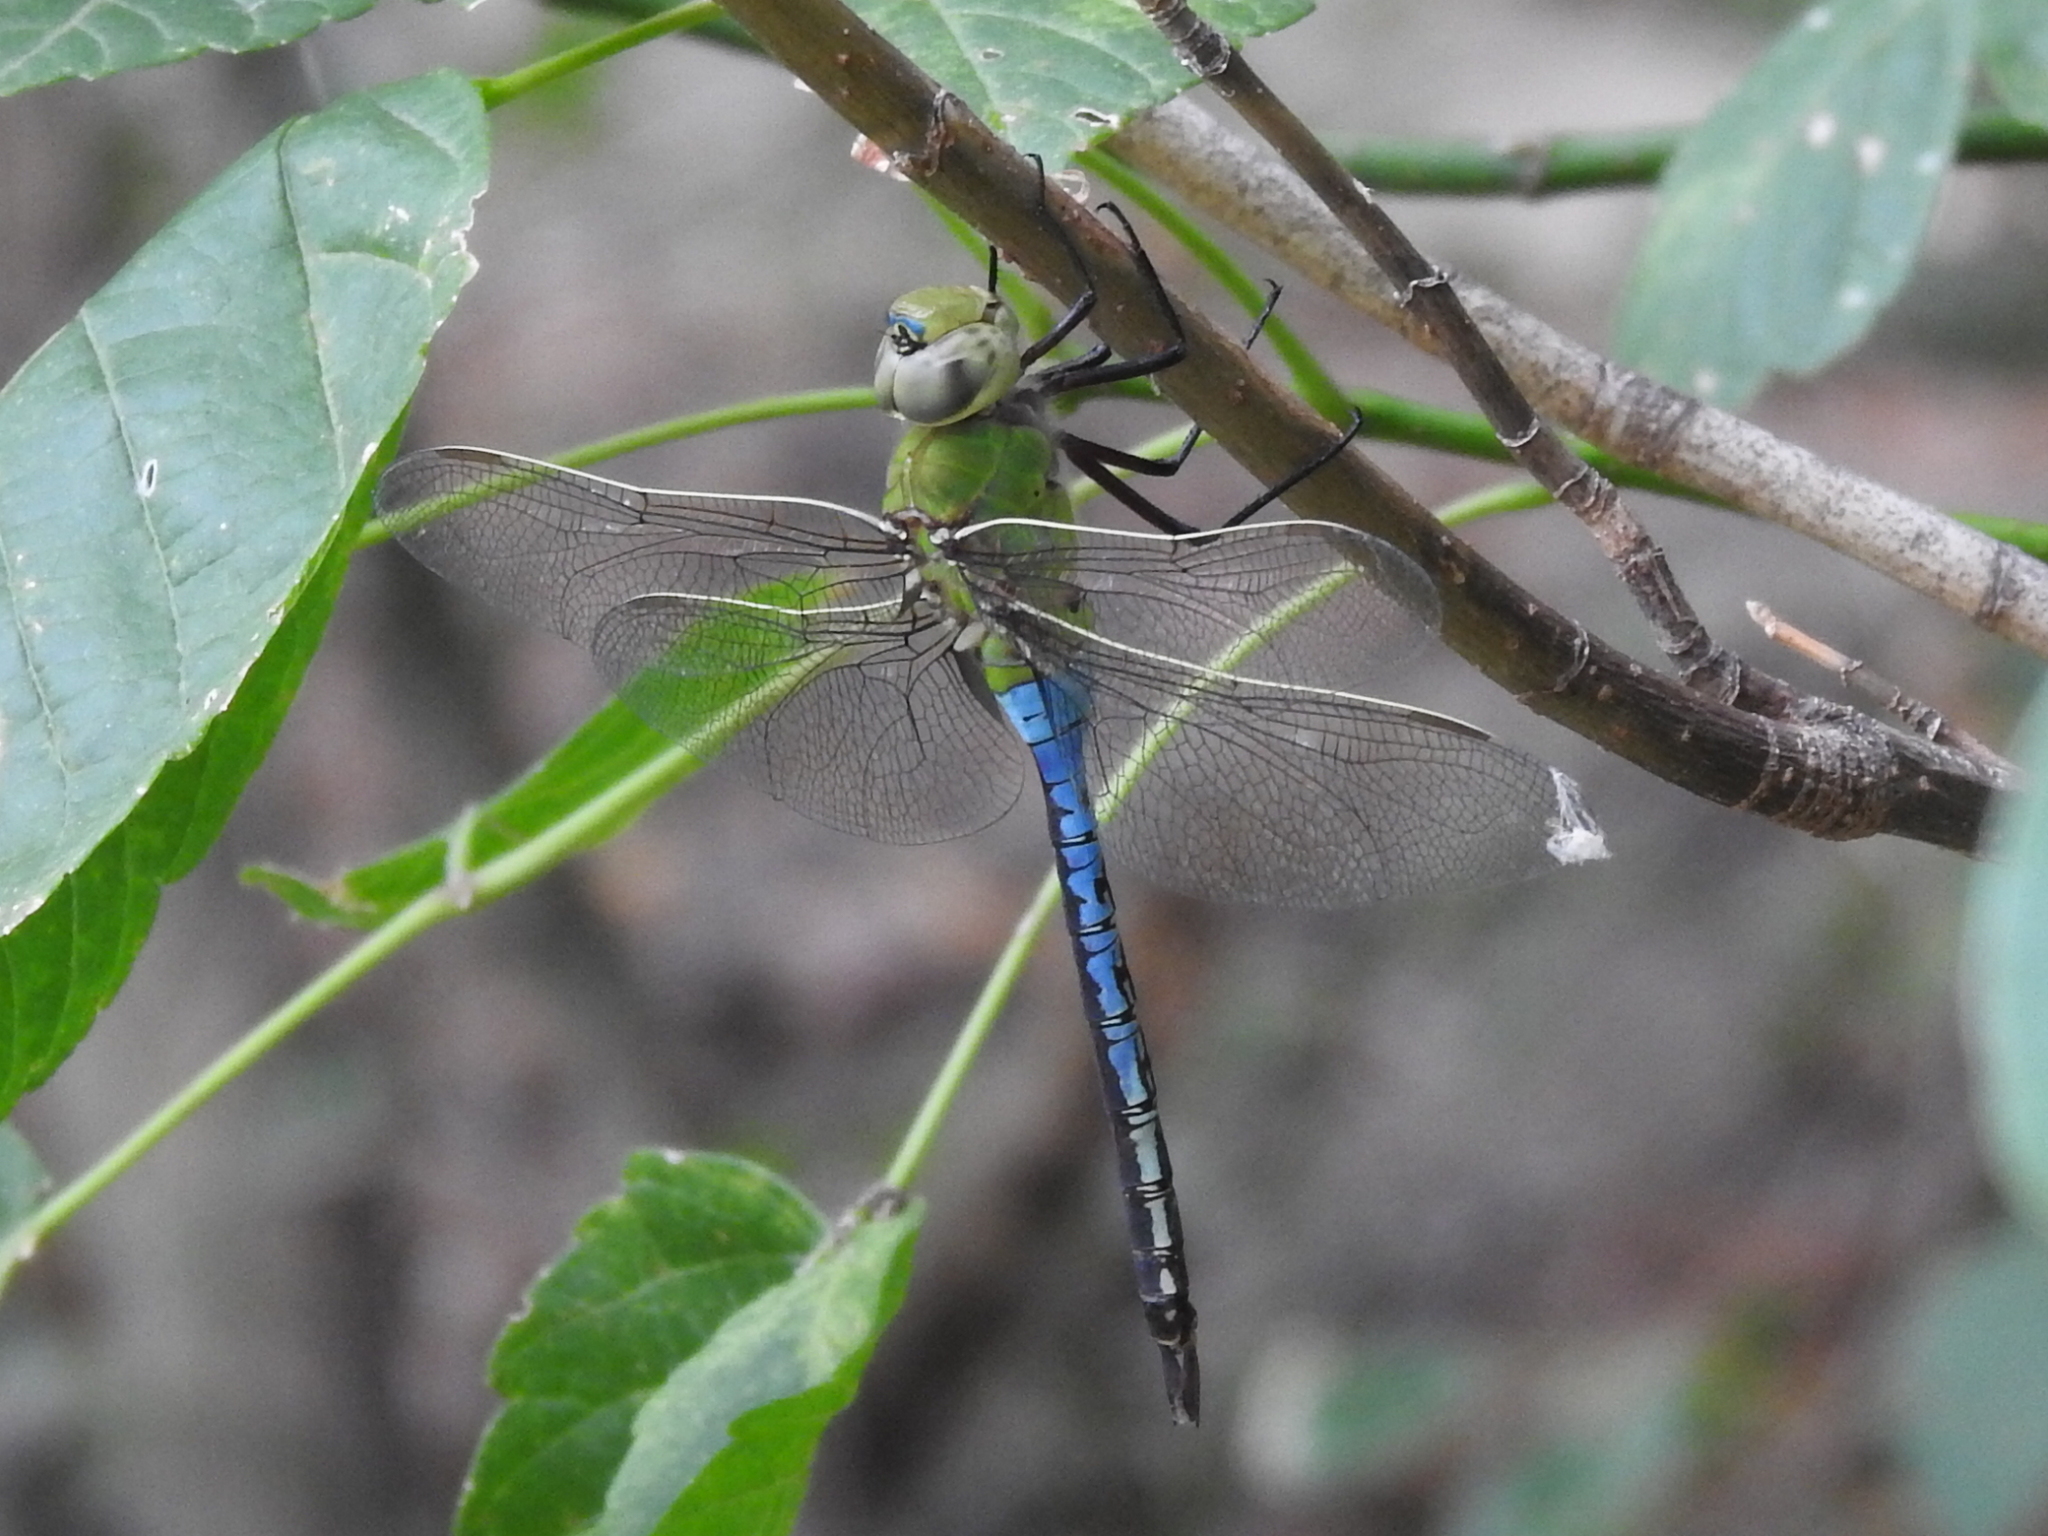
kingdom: Animalia
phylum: Arthropoda
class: Insecta
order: Odonata
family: Aeshnidae
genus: Anax
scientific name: Anax junius
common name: Common green darner
